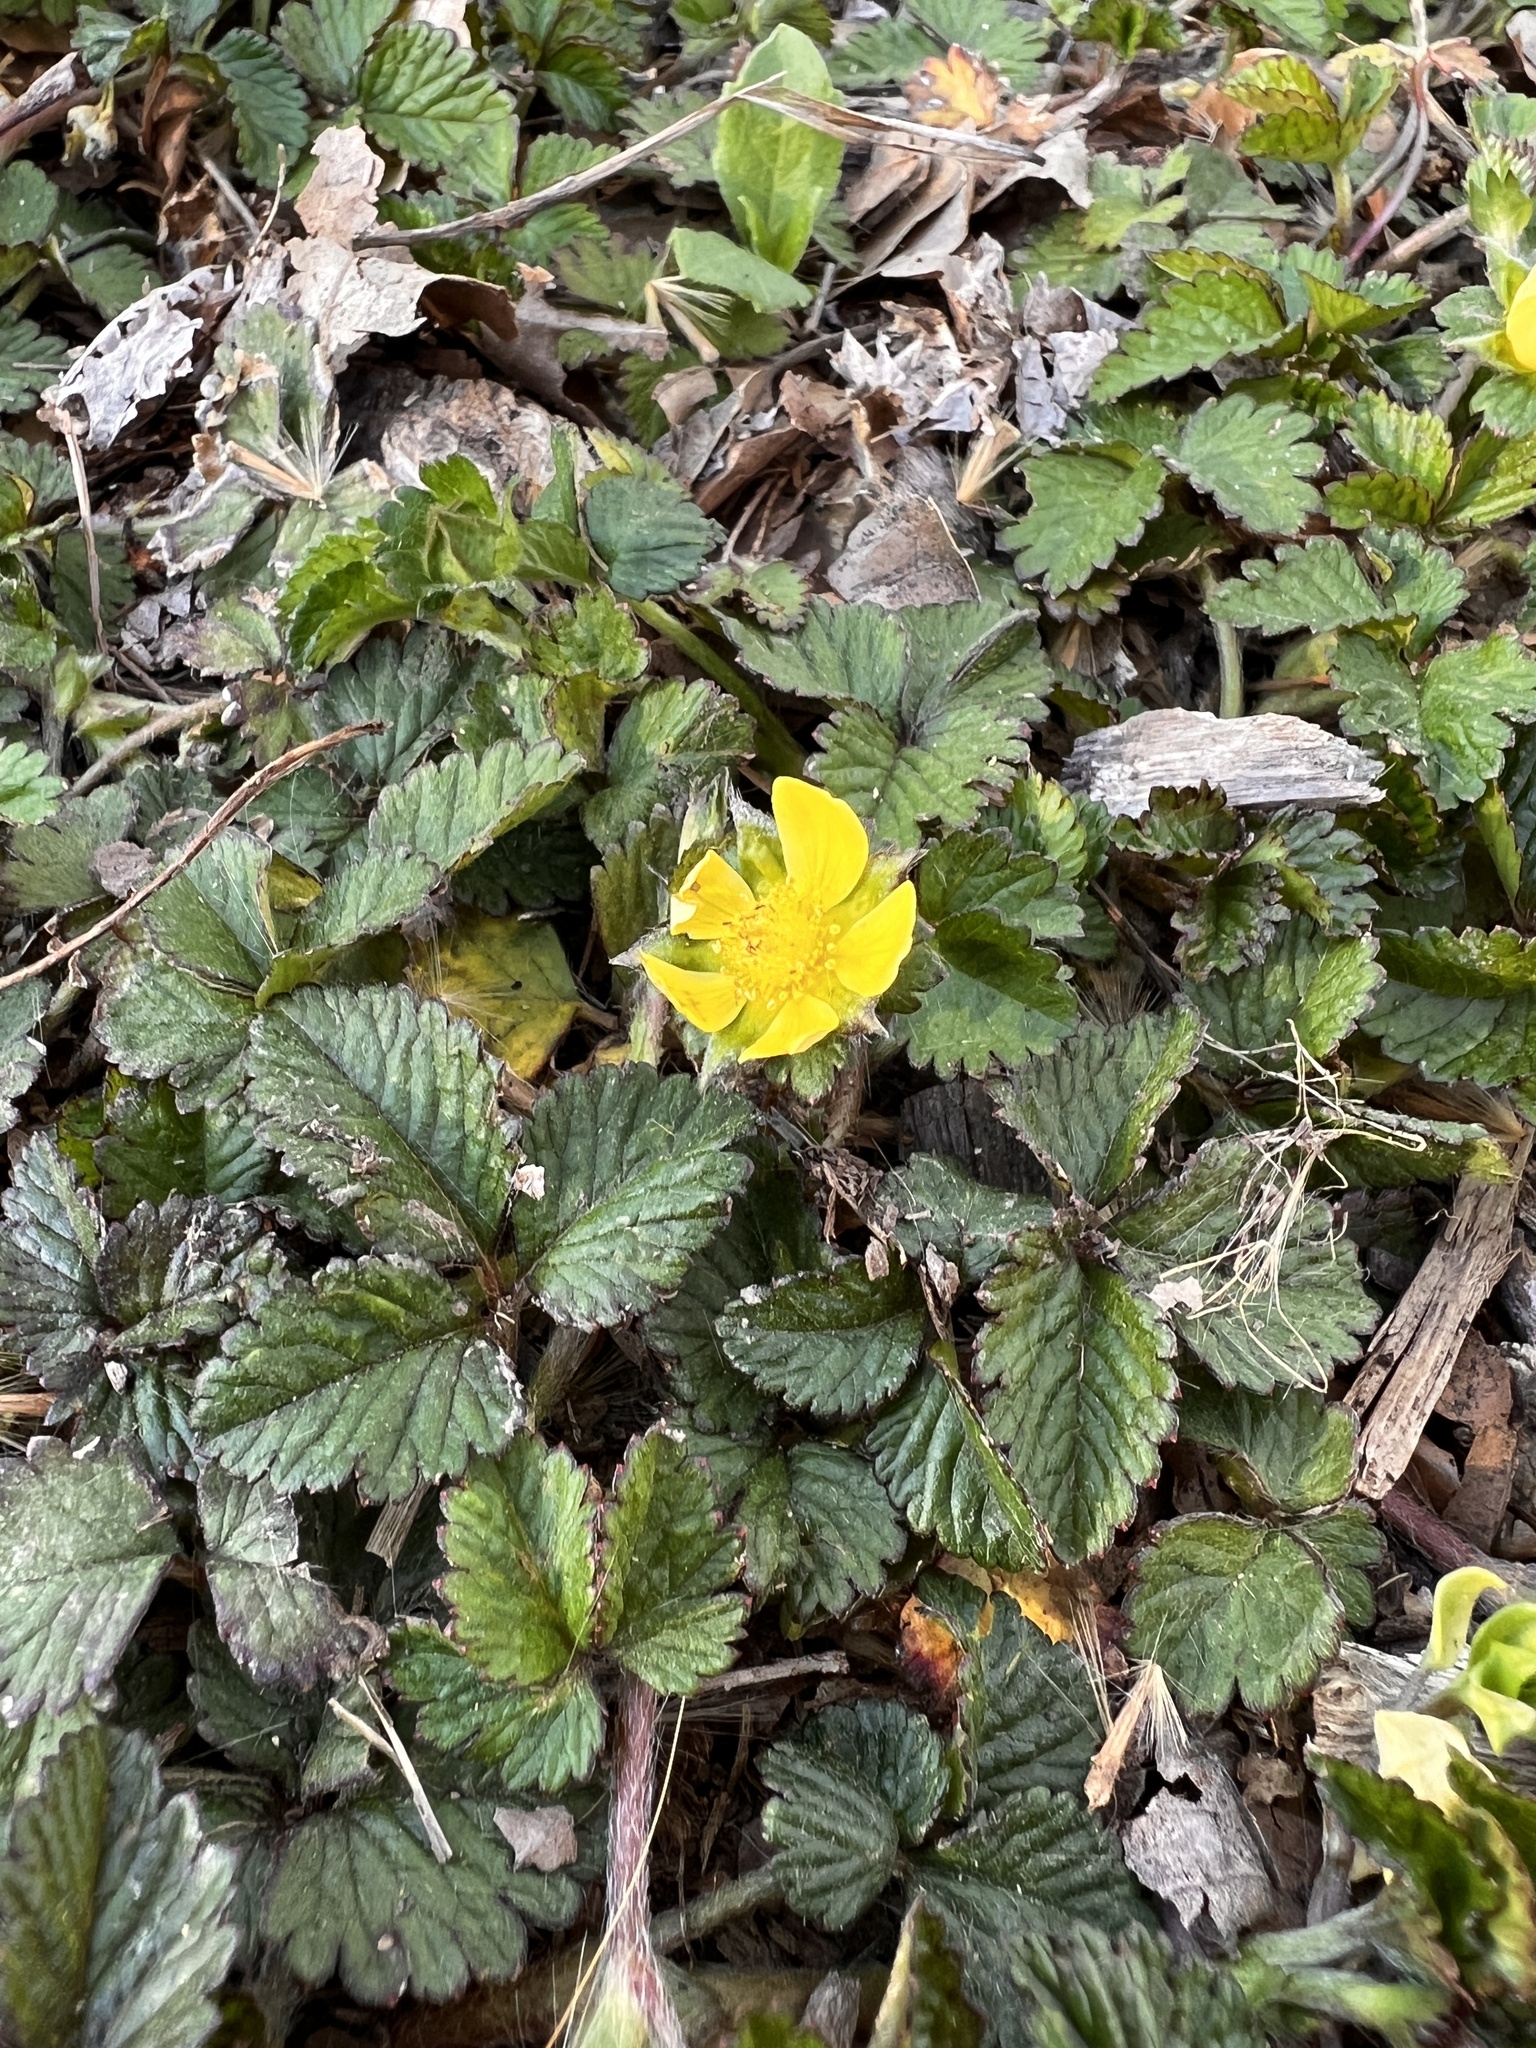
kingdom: Plantae
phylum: Tracheophyta
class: Magnoliopsida
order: Rosales
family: Rosaceae
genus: Potentilla
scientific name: Potentilla indica
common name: Yellow-flowered strawberry
